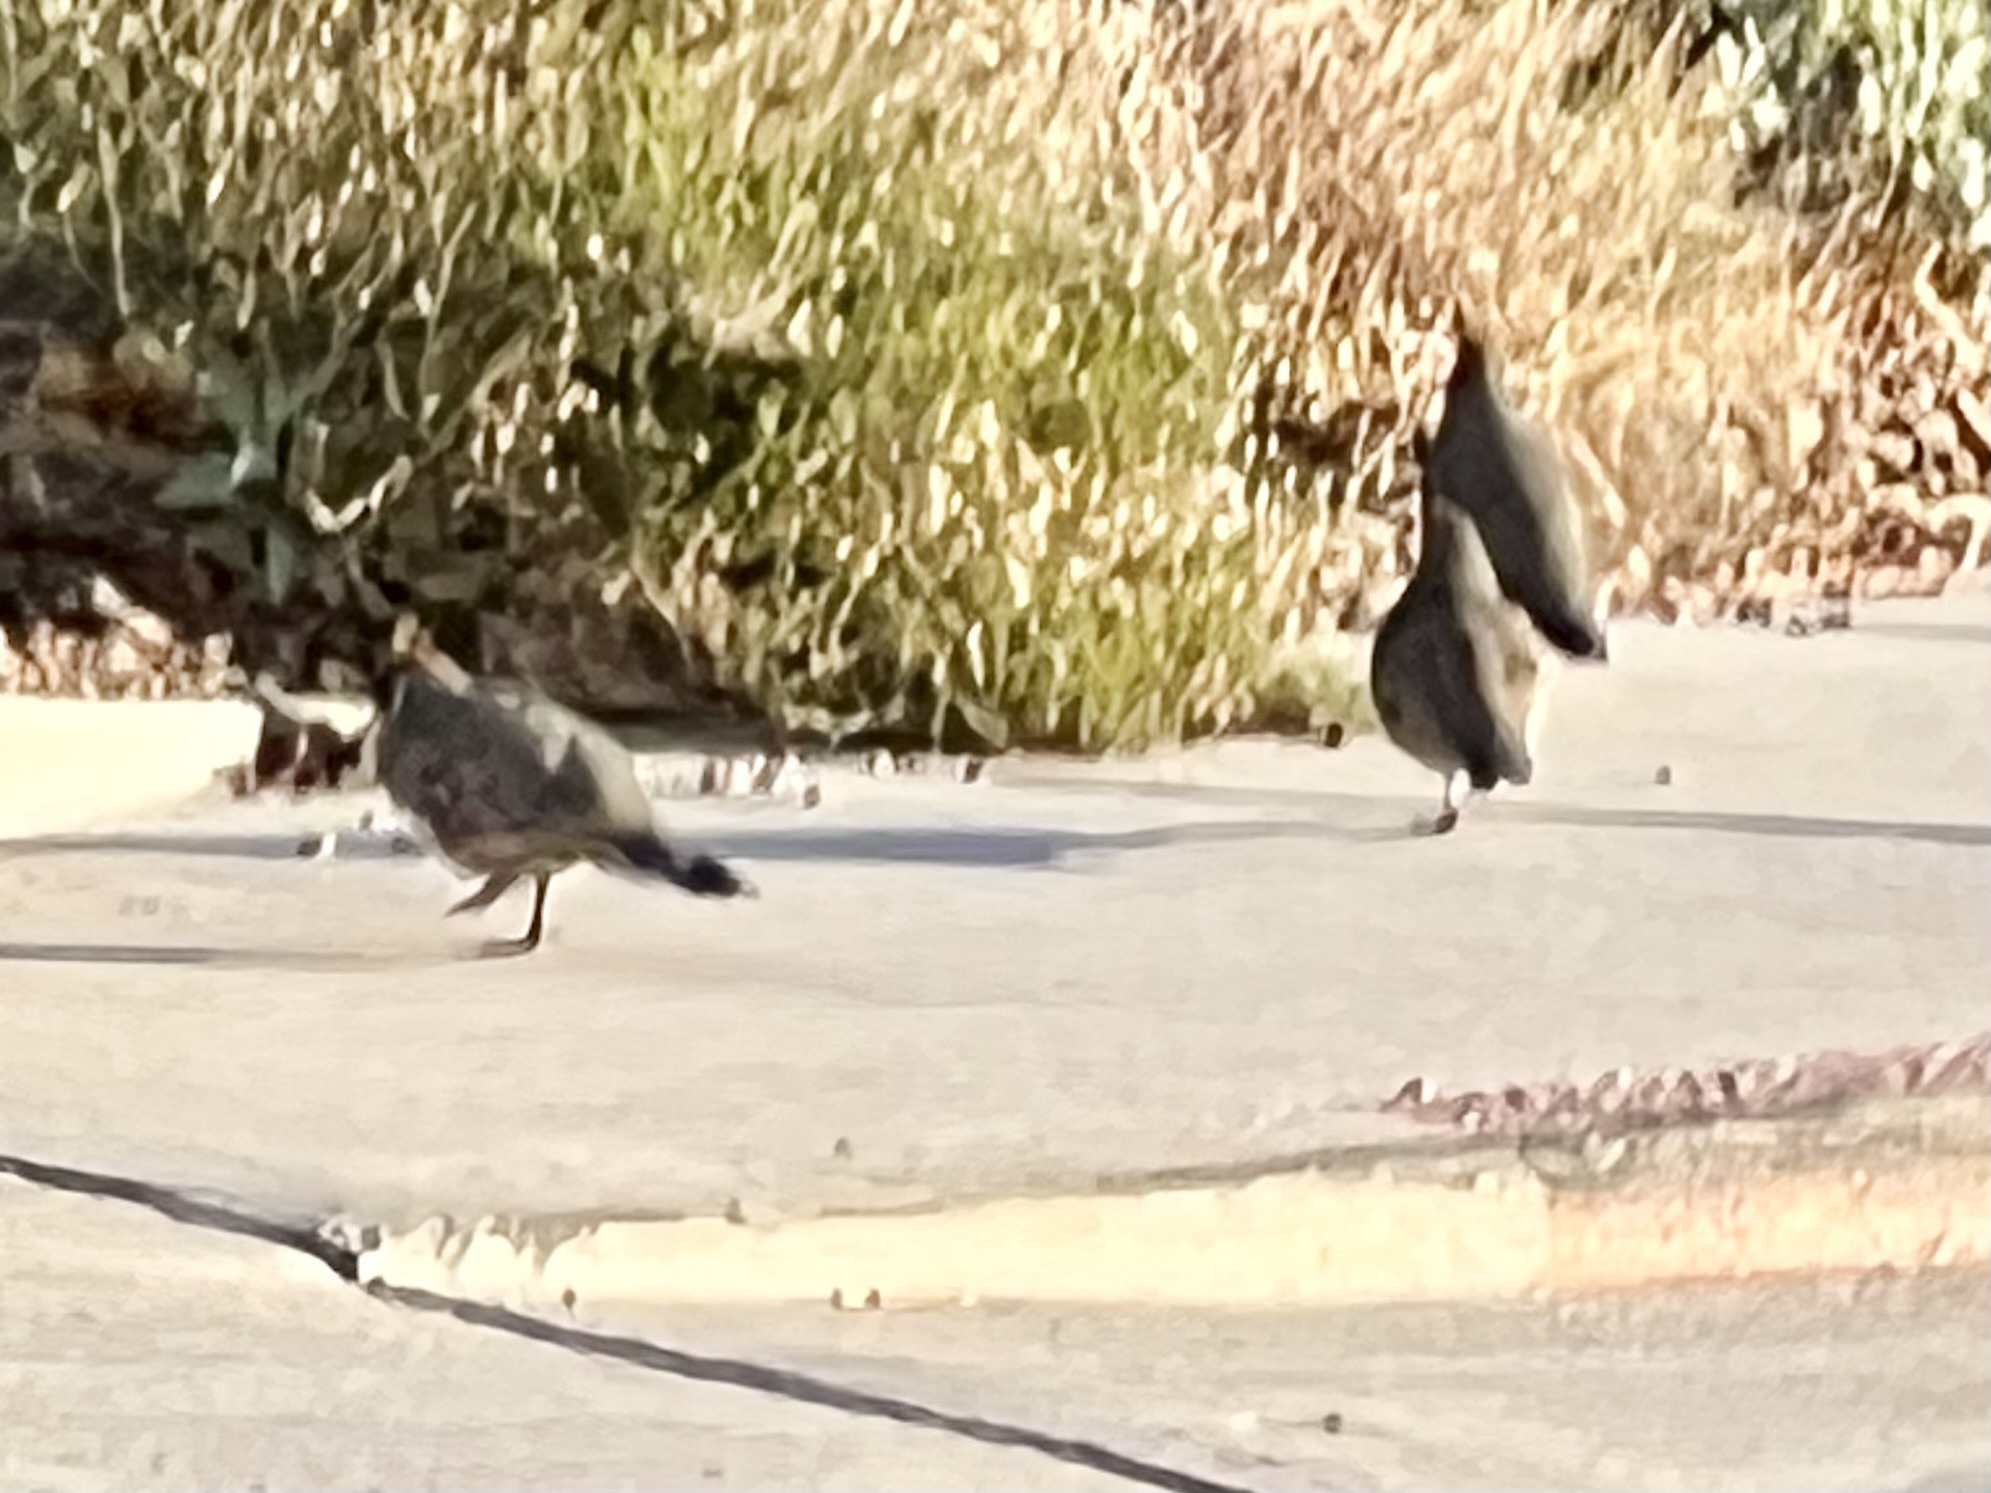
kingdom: Animalia
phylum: Chordata
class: Aves
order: Galliformes
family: Odontophoridae
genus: Callipepla
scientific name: Callipepla gambelii
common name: Gambel's quail
